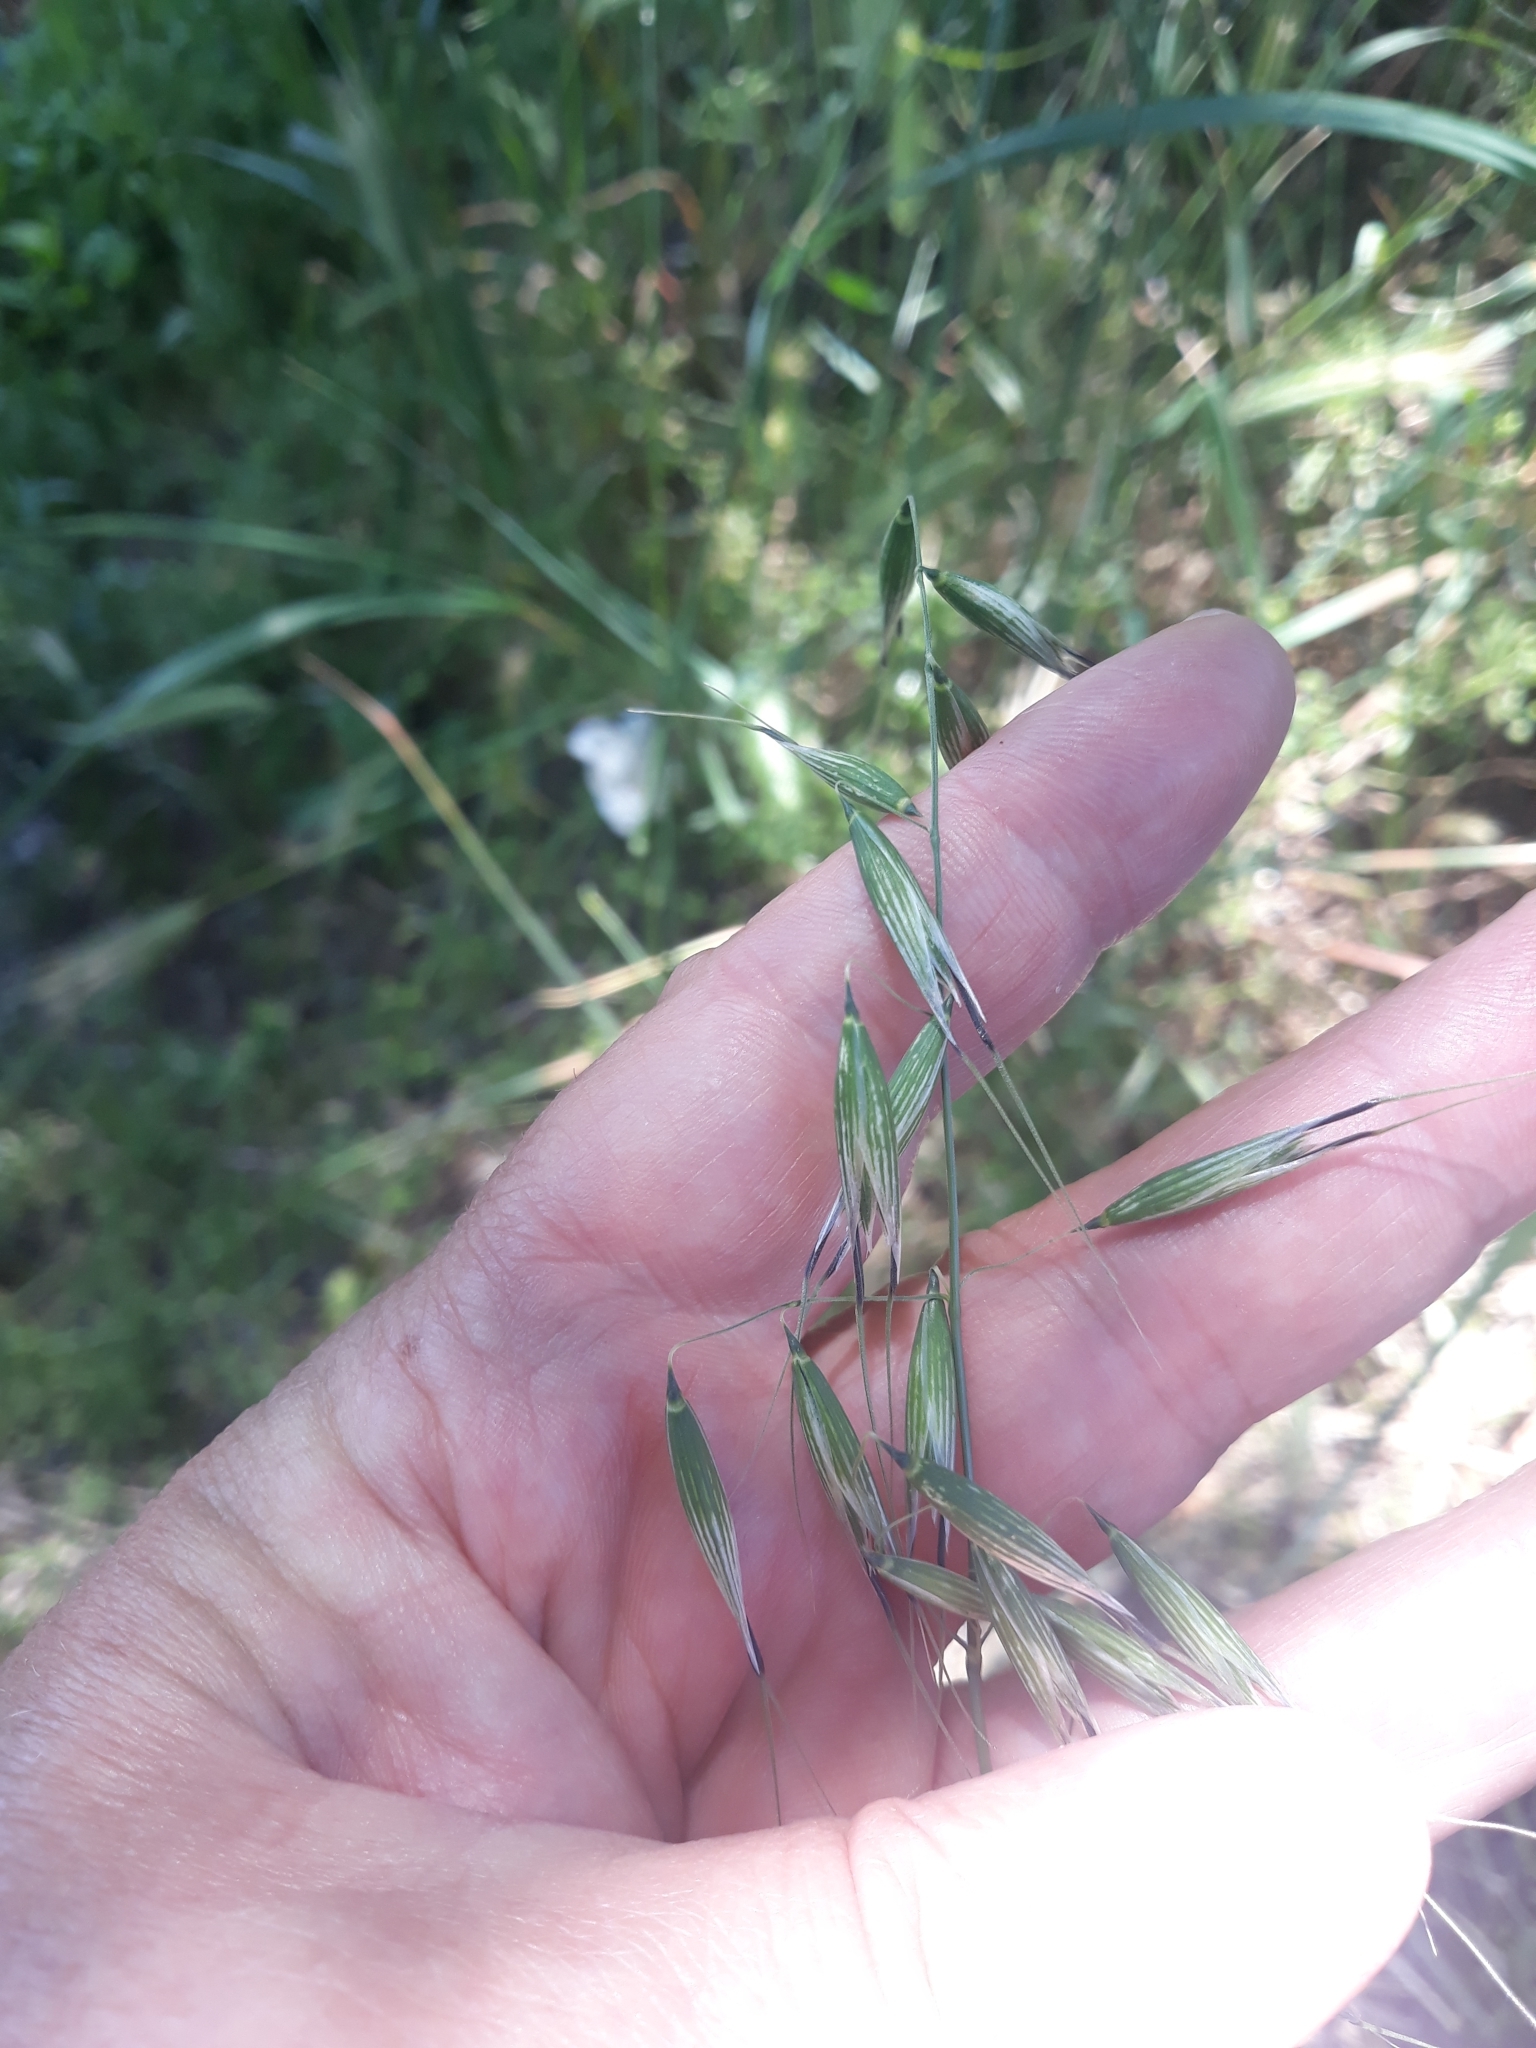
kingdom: Plantae
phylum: Tracheophyta
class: Liliopsida
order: Poales
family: Poaceae
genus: Avena
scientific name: Avena sterilis
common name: Animated oat
